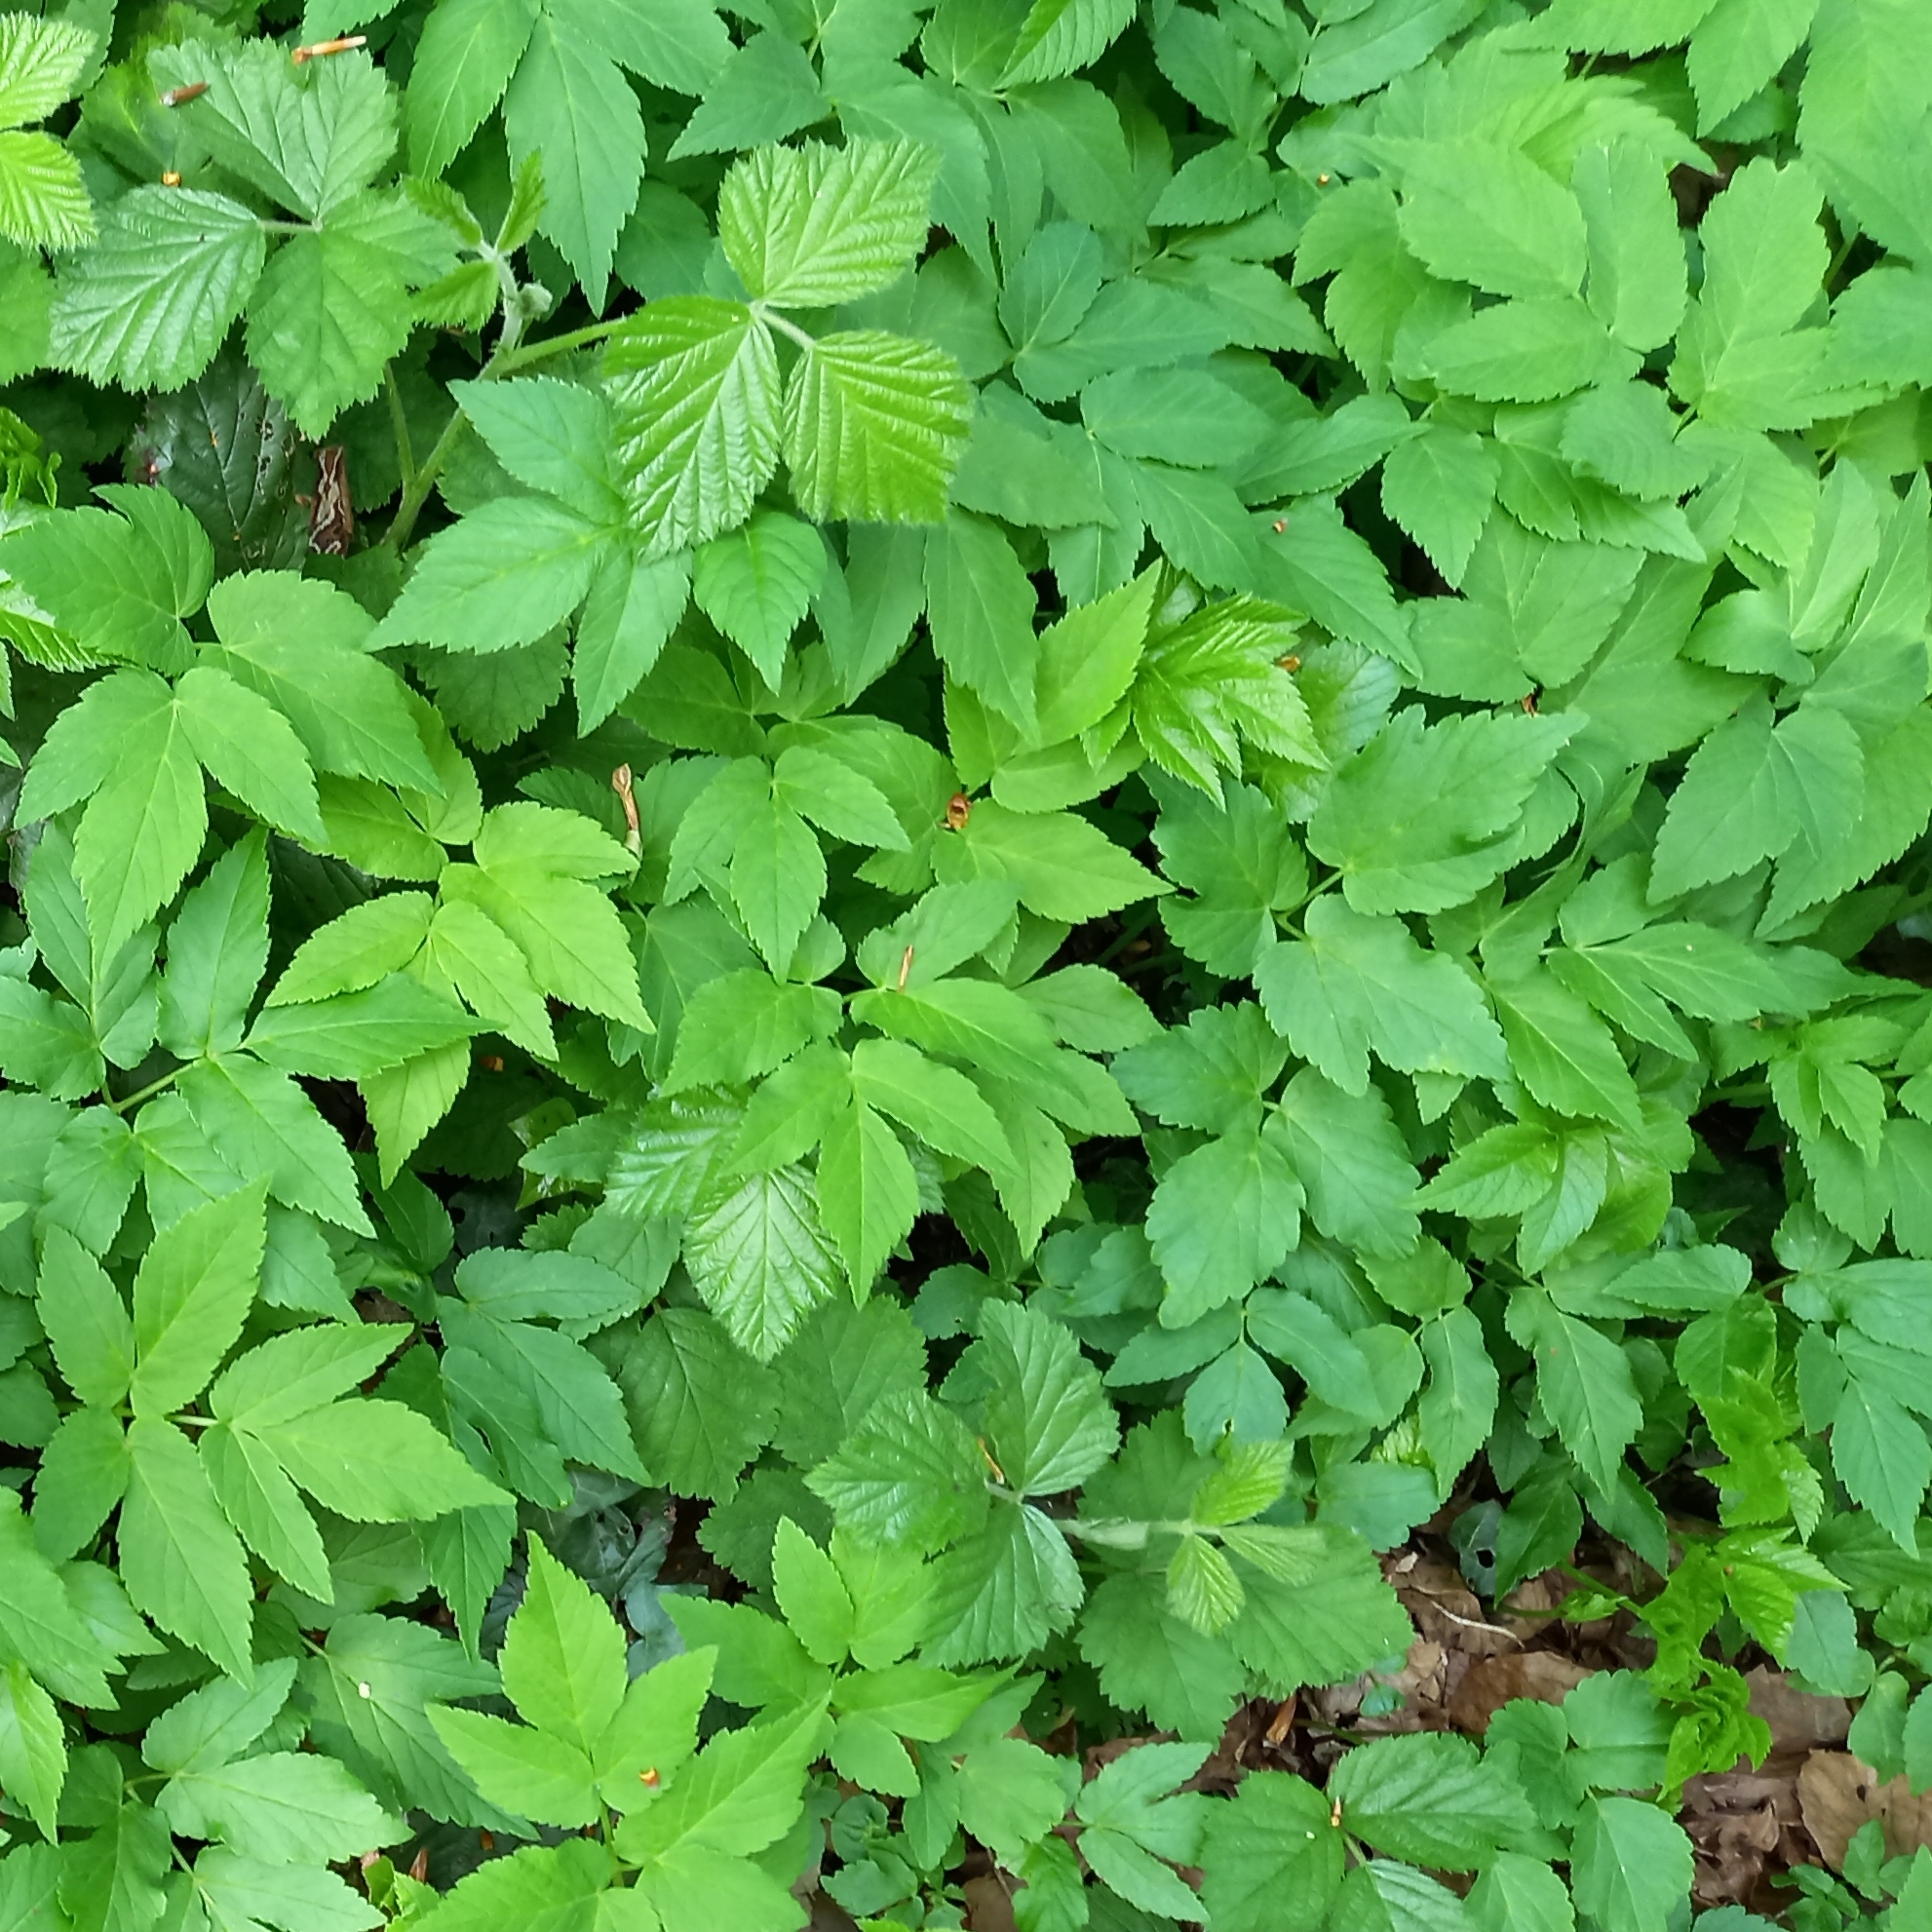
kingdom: Plantae
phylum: Tracheophyta
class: Magnoliopsida
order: Apiales
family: Apiaceae
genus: Aegopodium
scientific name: Aegopodium podagraria
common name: Ground-elder
